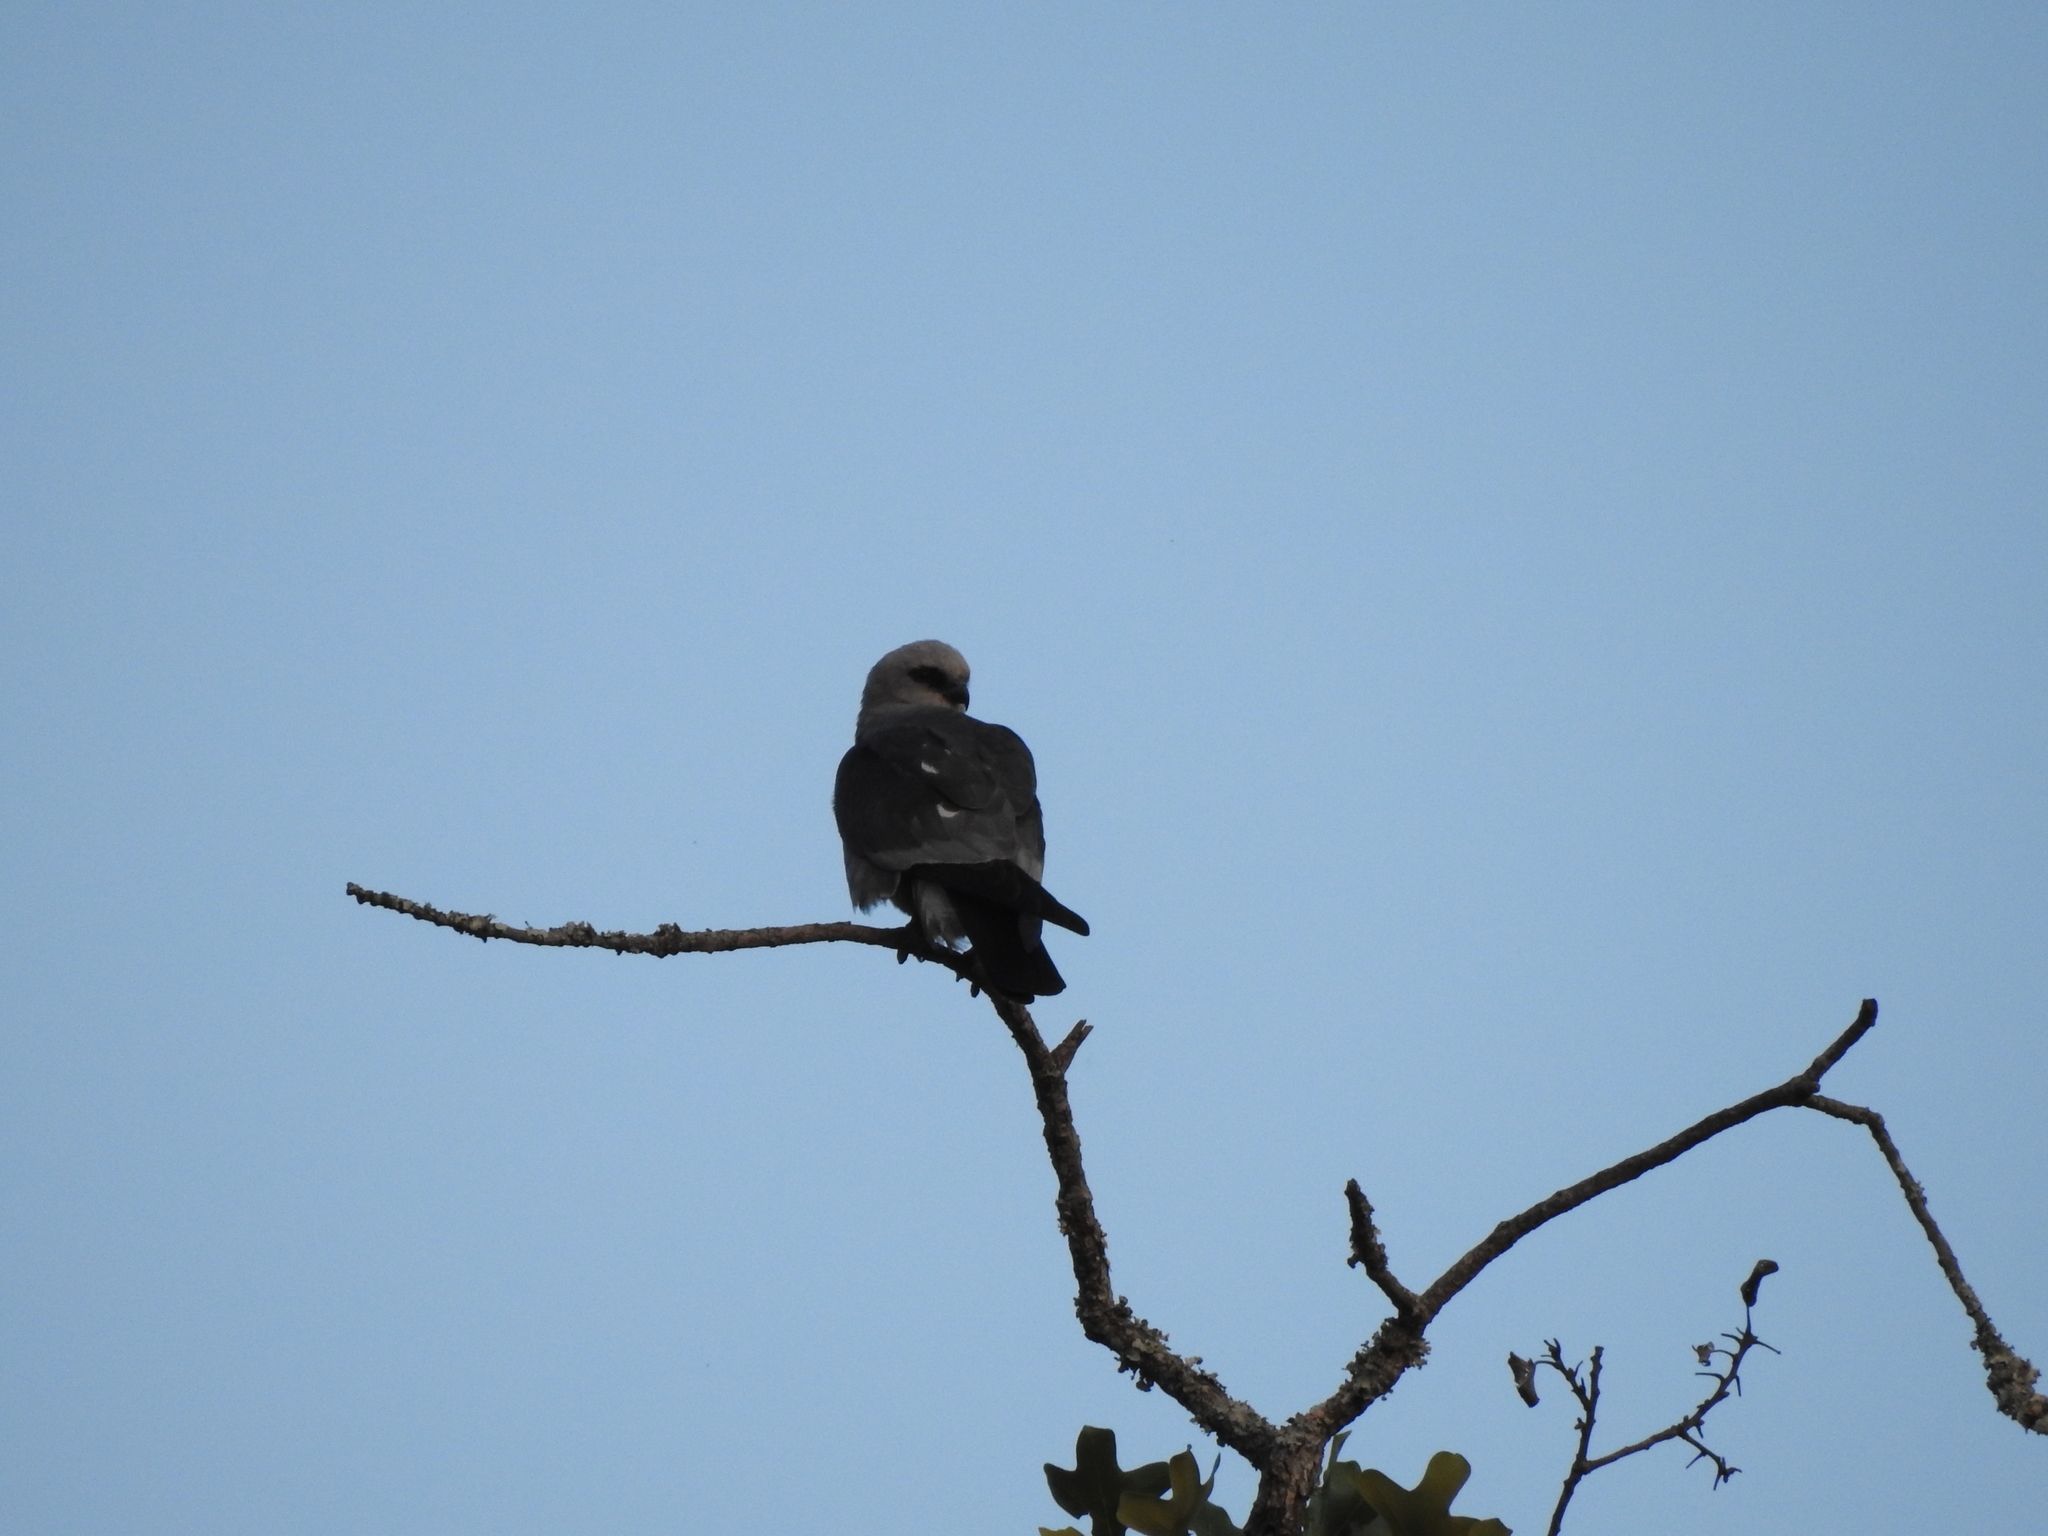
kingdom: Animalia
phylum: Chordata
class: Aves
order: Accipitriformes
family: Accipitridae
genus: Ictinia
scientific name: Ictinia mississippiensis
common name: Mississippi kite
